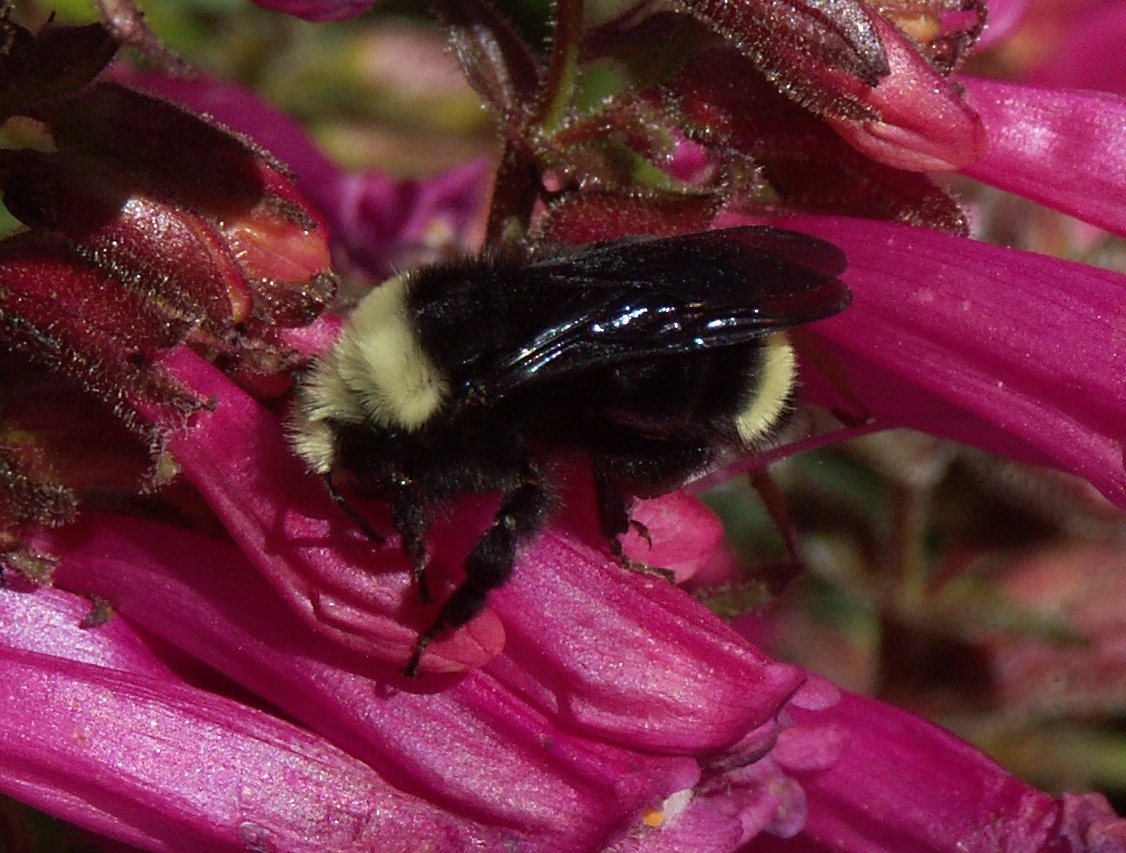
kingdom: Animalia
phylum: Arthropoda
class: Insecta
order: Hymenoptera
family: Apidae
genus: Bombus
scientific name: Bombus vosnesenskii
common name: Vosnesensky bumble bee
